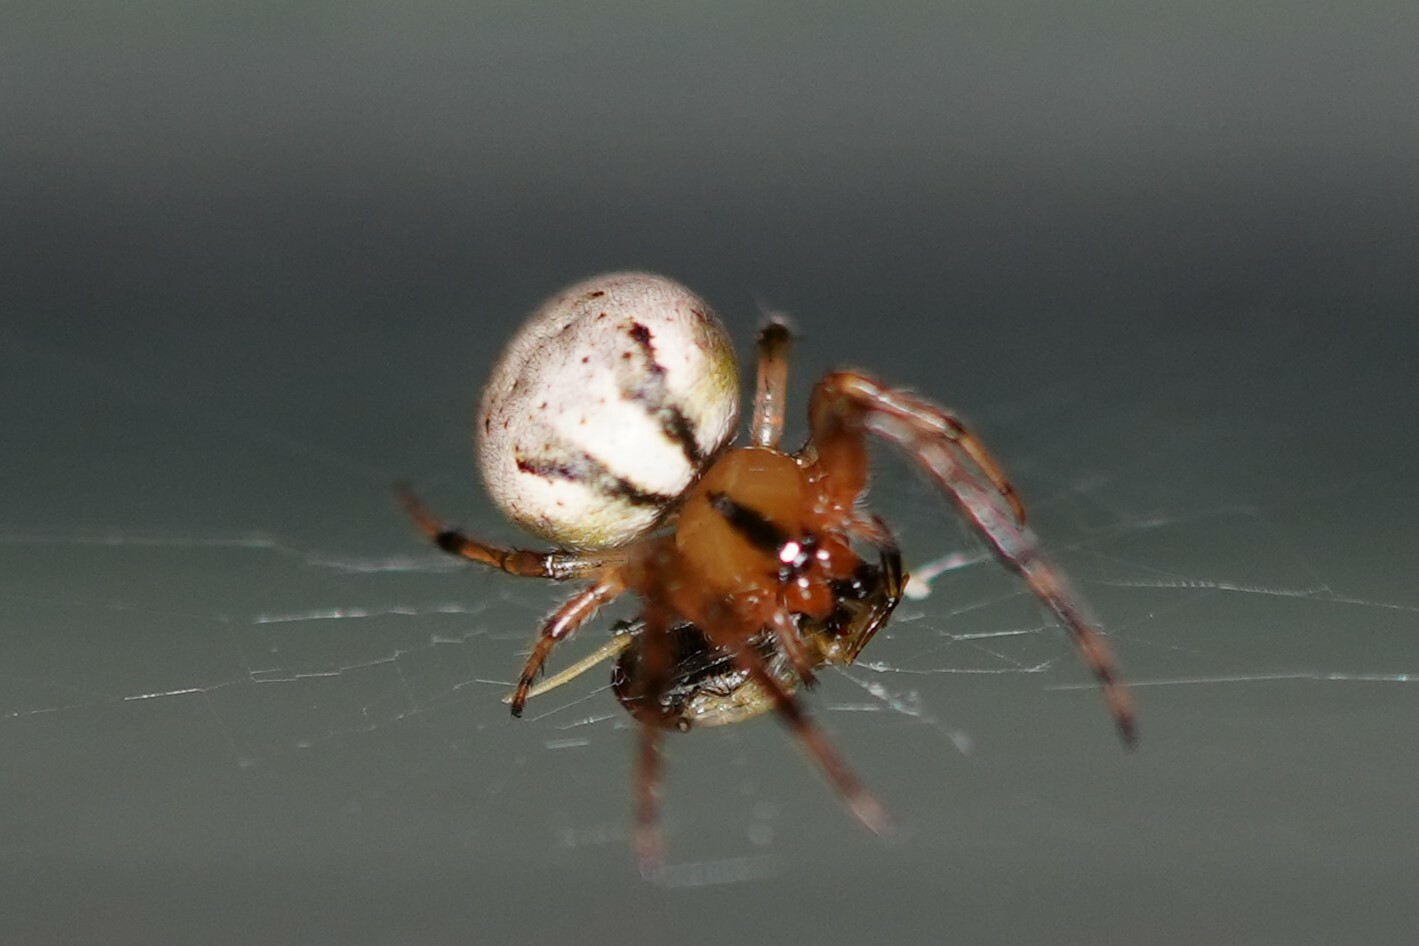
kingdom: Animalia
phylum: Arthropoda
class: Arachnida
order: Araneae
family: Araneidae
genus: Metazygia
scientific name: Metazygia zilloides
